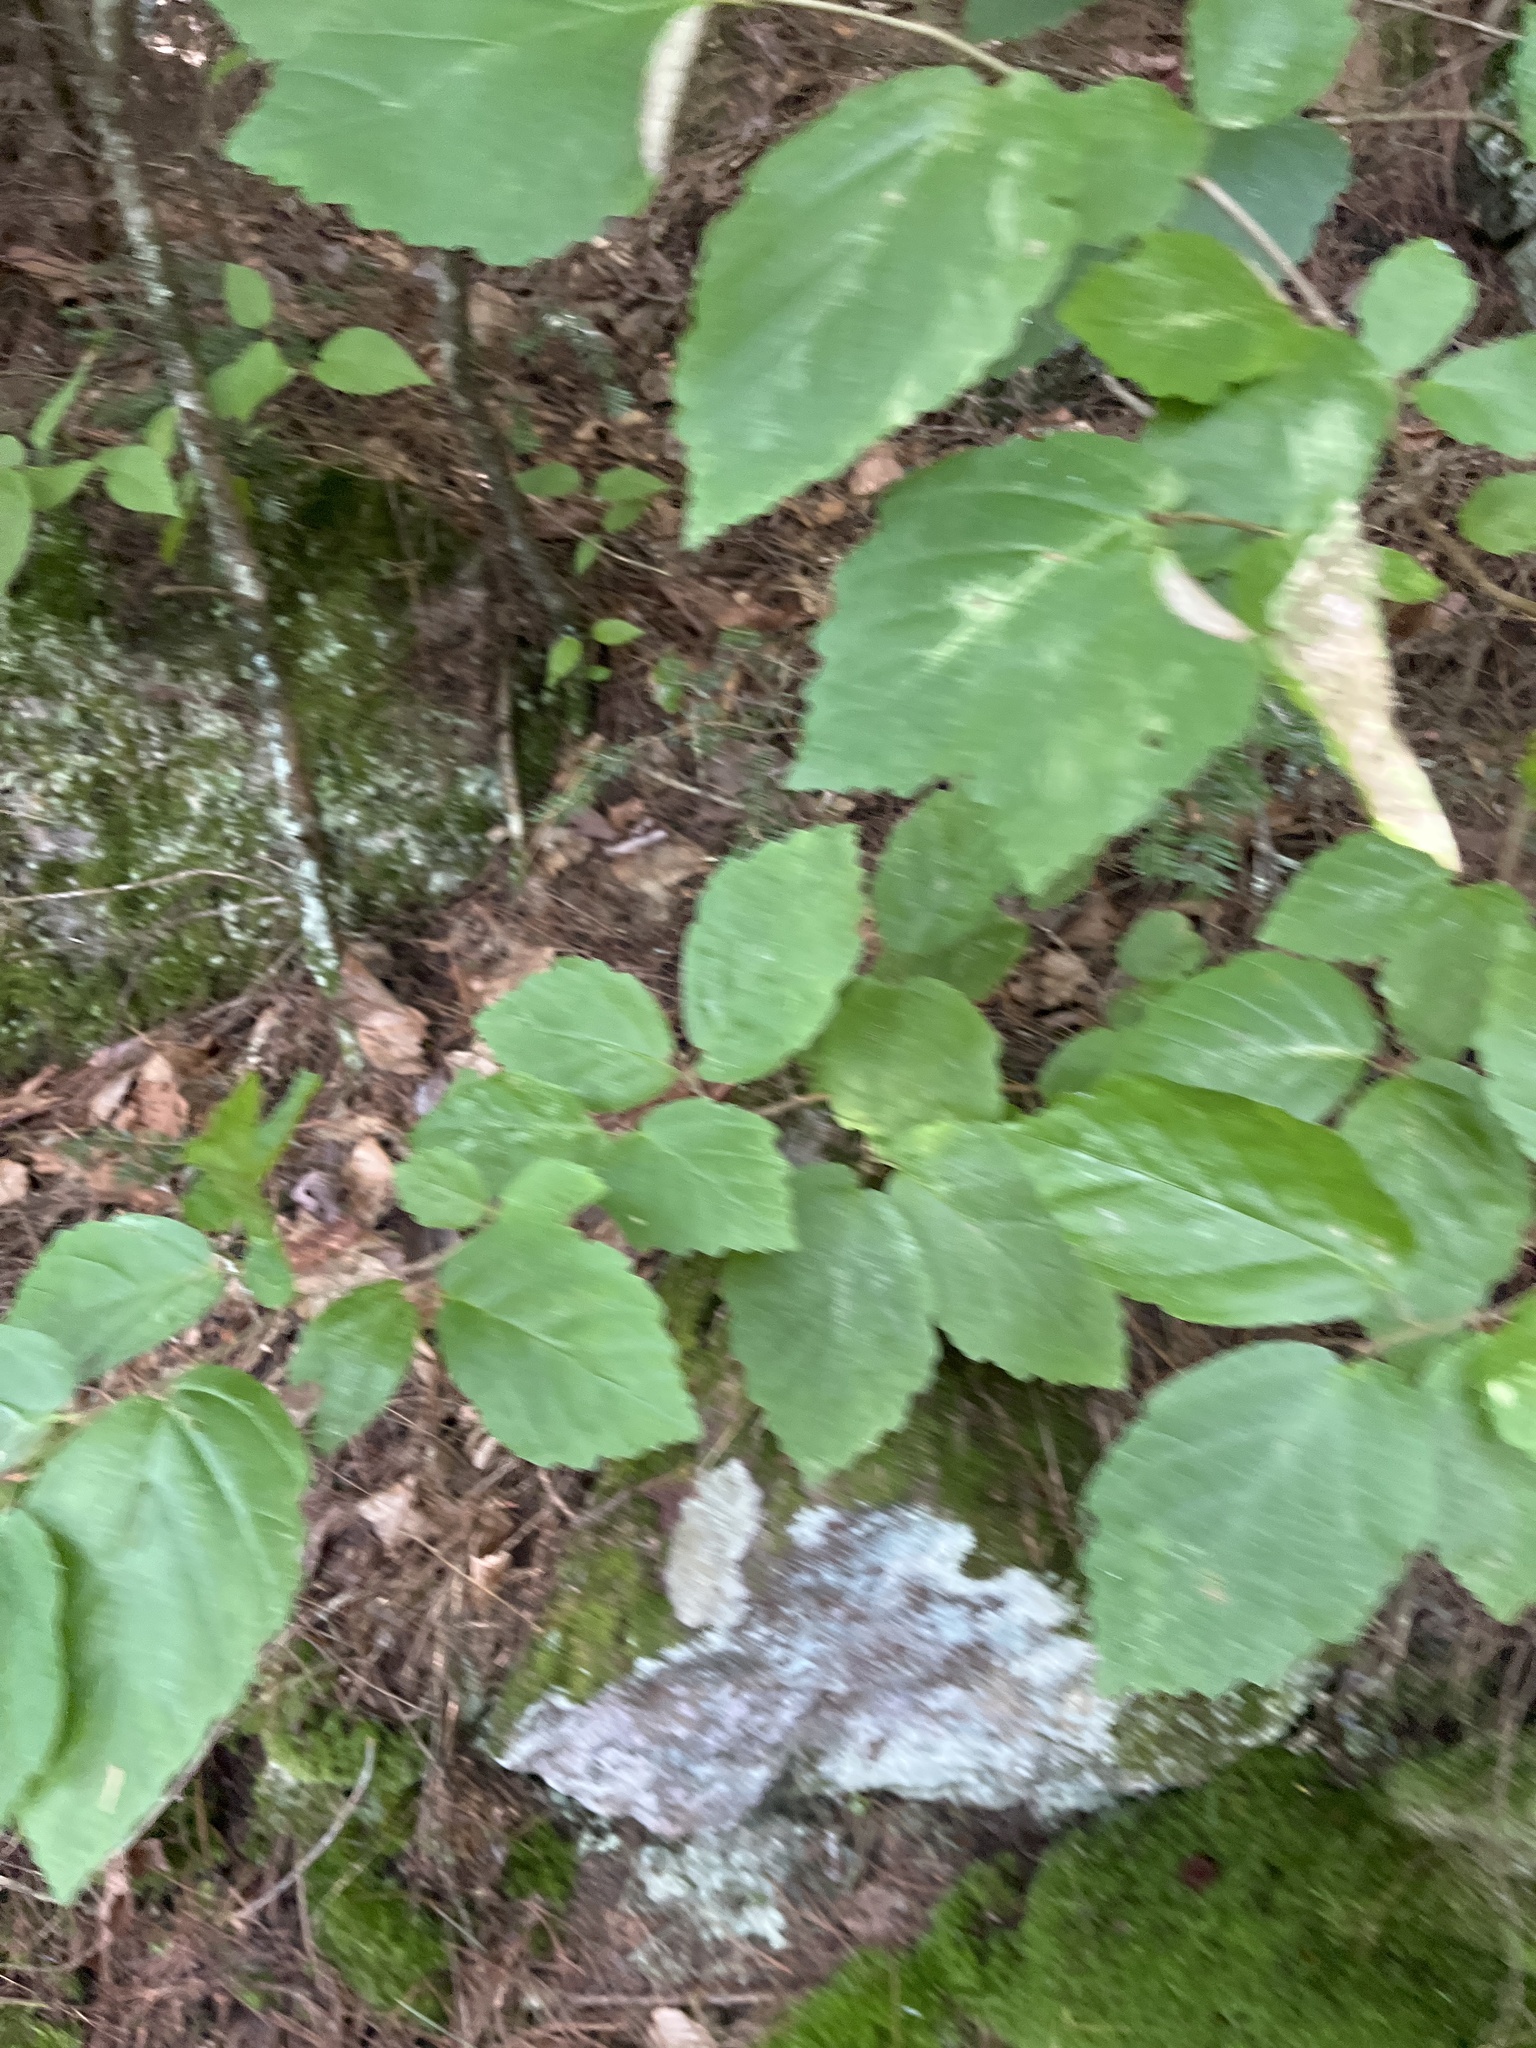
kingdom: Plantae
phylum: Tracheophyta
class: Magnoliopsida
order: Saxifragales
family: Hamamelidaceae
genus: Hamamelis
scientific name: Hamamelis virginiana
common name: Witch-hazel
